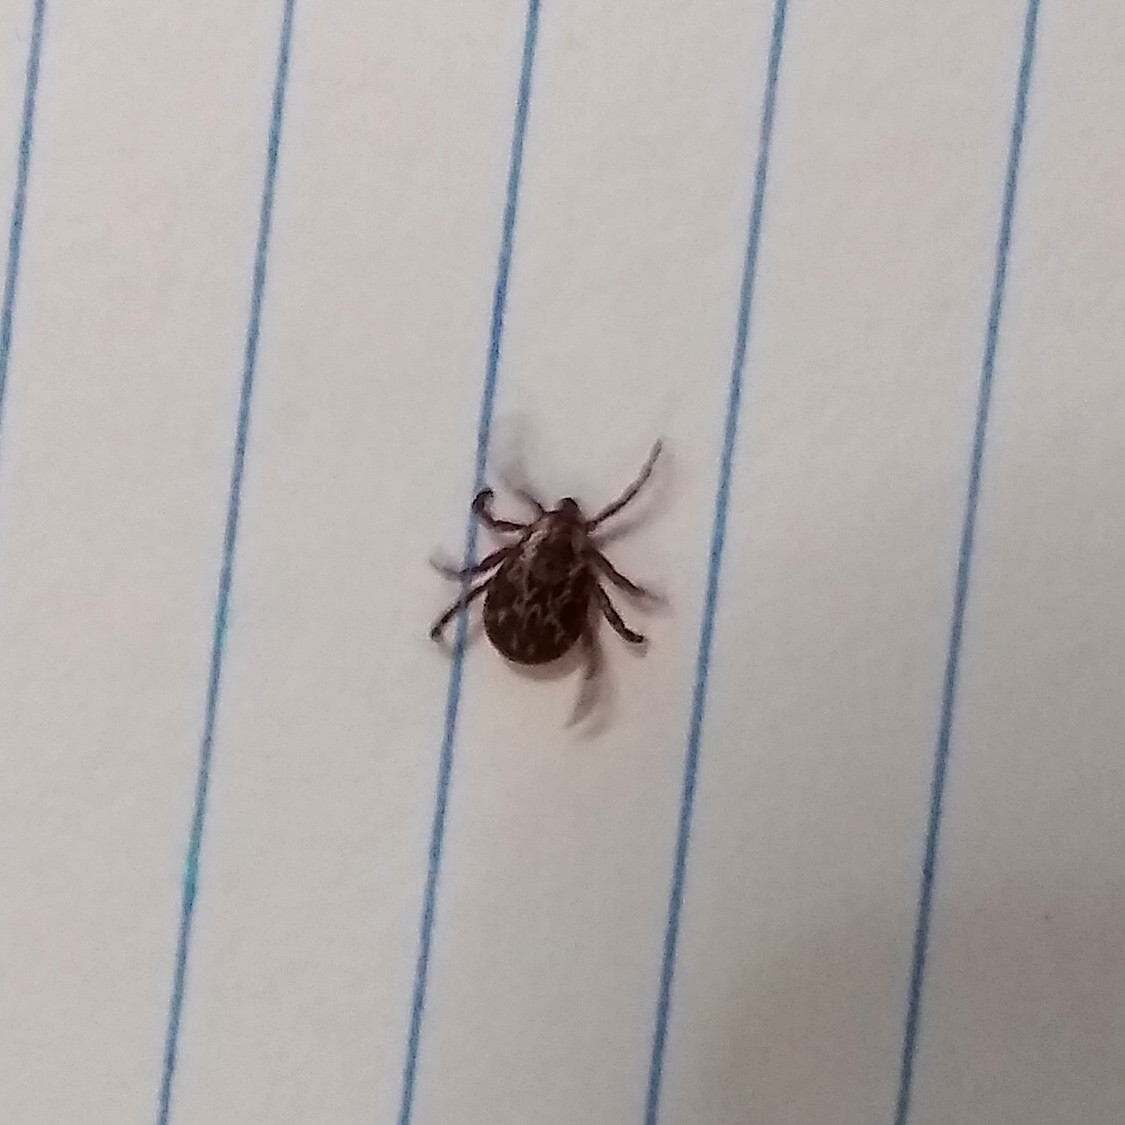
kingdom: Animalia
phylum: Arthropoda
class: Arachnida
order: Ixodida
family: Ixodidae
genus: Dermacentor
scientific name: Dermacentor variabilis
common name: American dog tick
